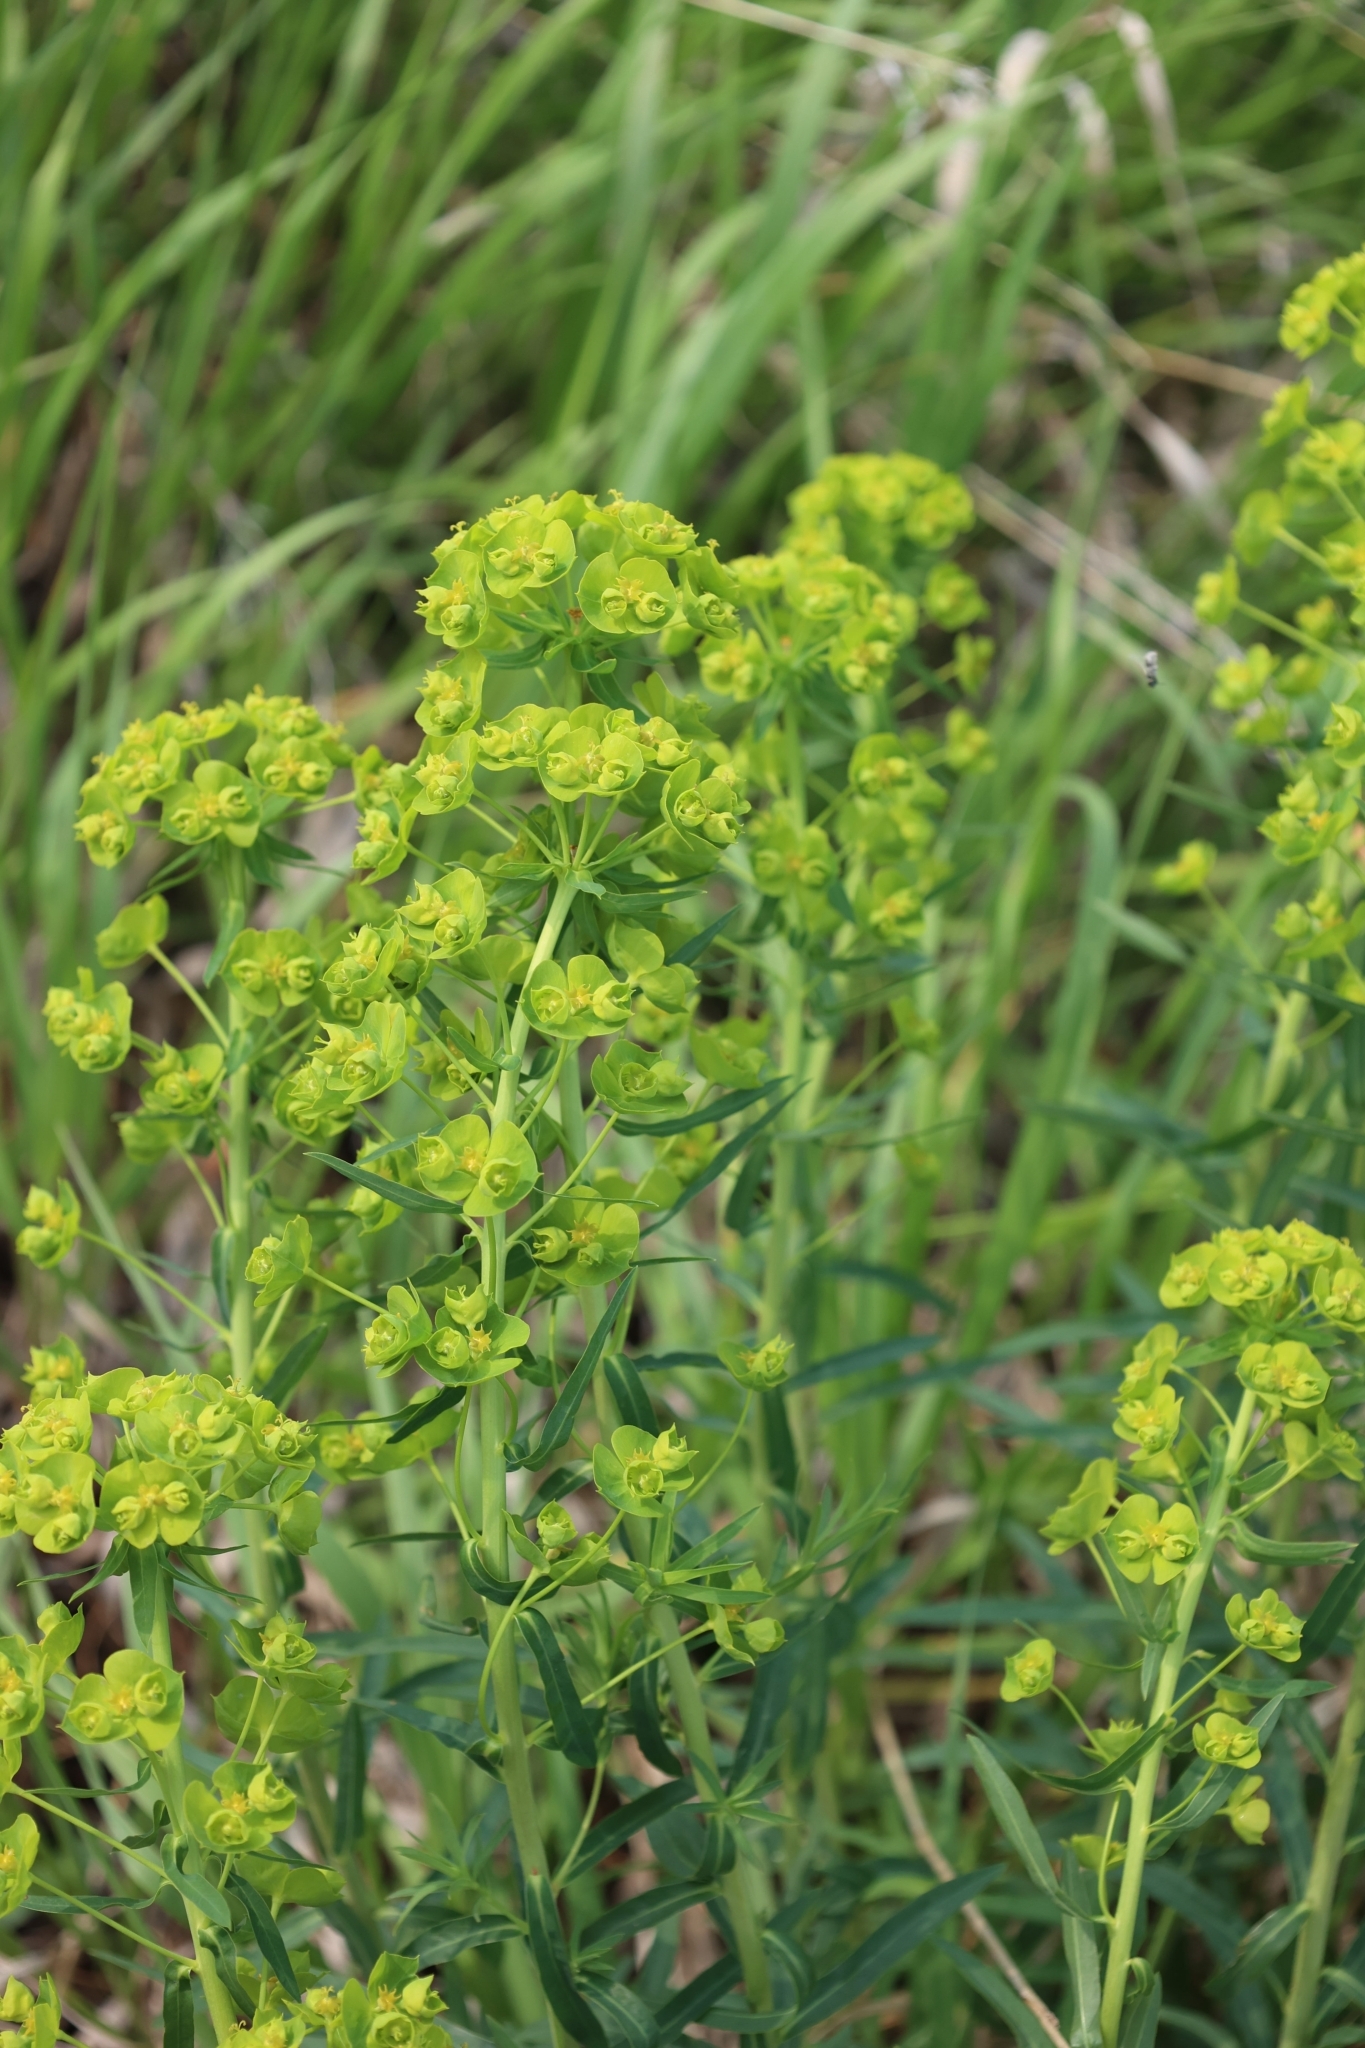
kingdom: Plantae
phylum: Tracheophyta
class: Magnoliopsida
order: Malpighiales
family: Euphorbiaceae
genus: Euphorbia
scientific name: Euphorbia virgata
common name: Leafy spurge
